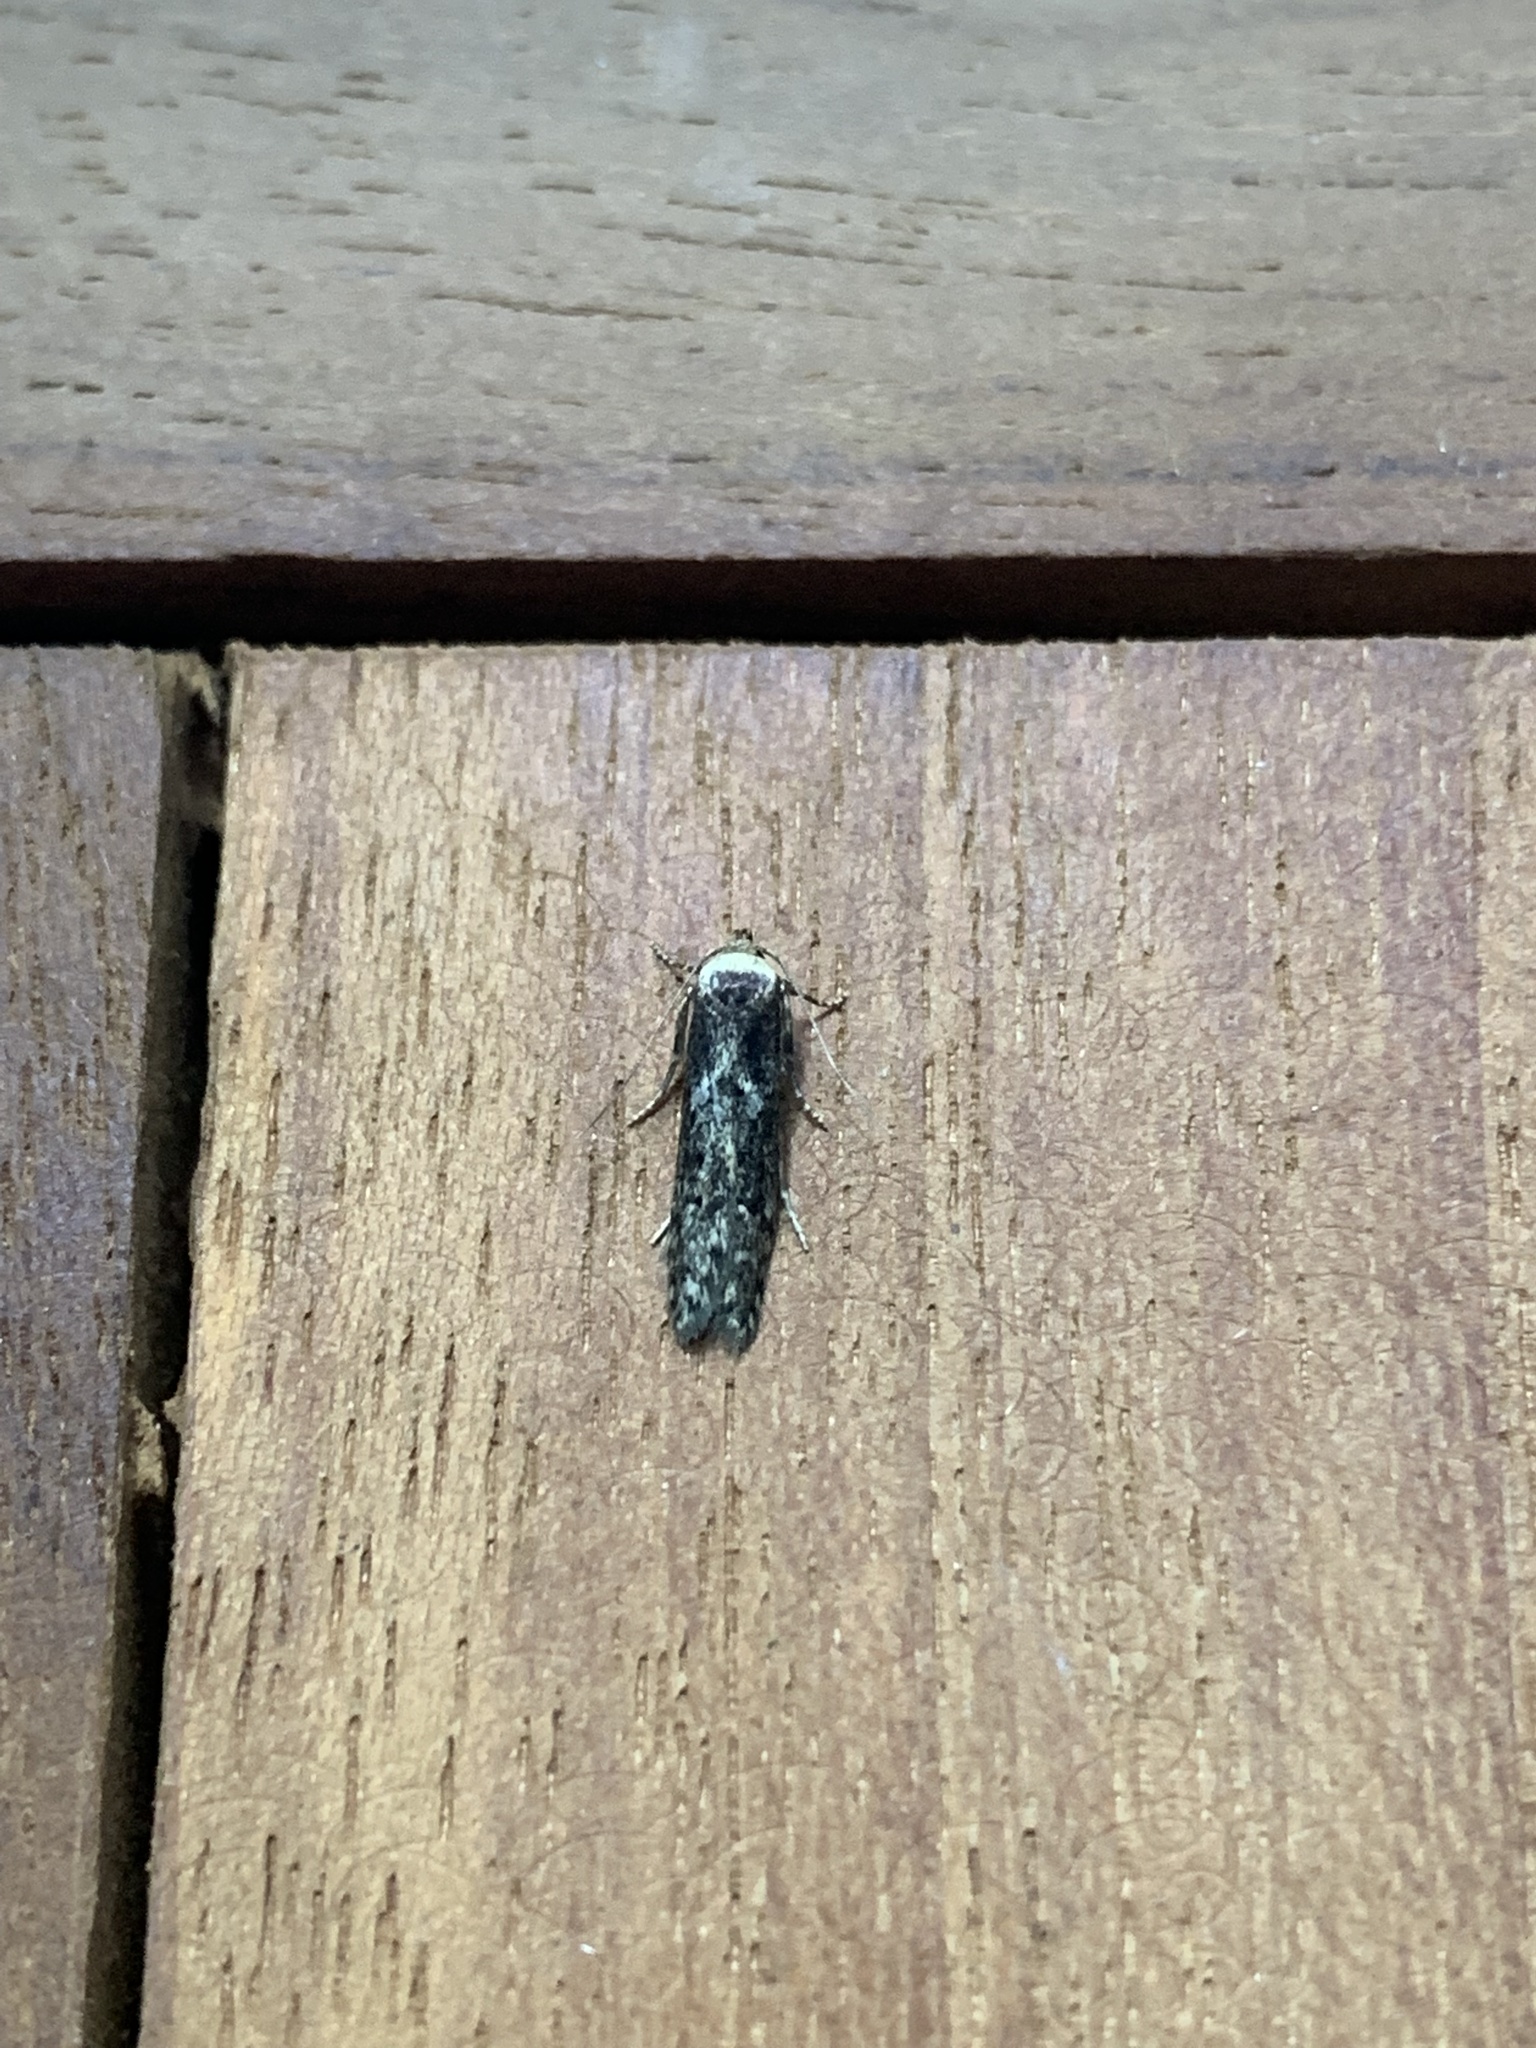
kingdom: Animalia
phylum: Arthropoda
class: Insecta
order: Lepidoptera
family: Blastobasidae
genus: Blastobasis
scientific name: Blastobasis adustella
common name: Dingy dowd
